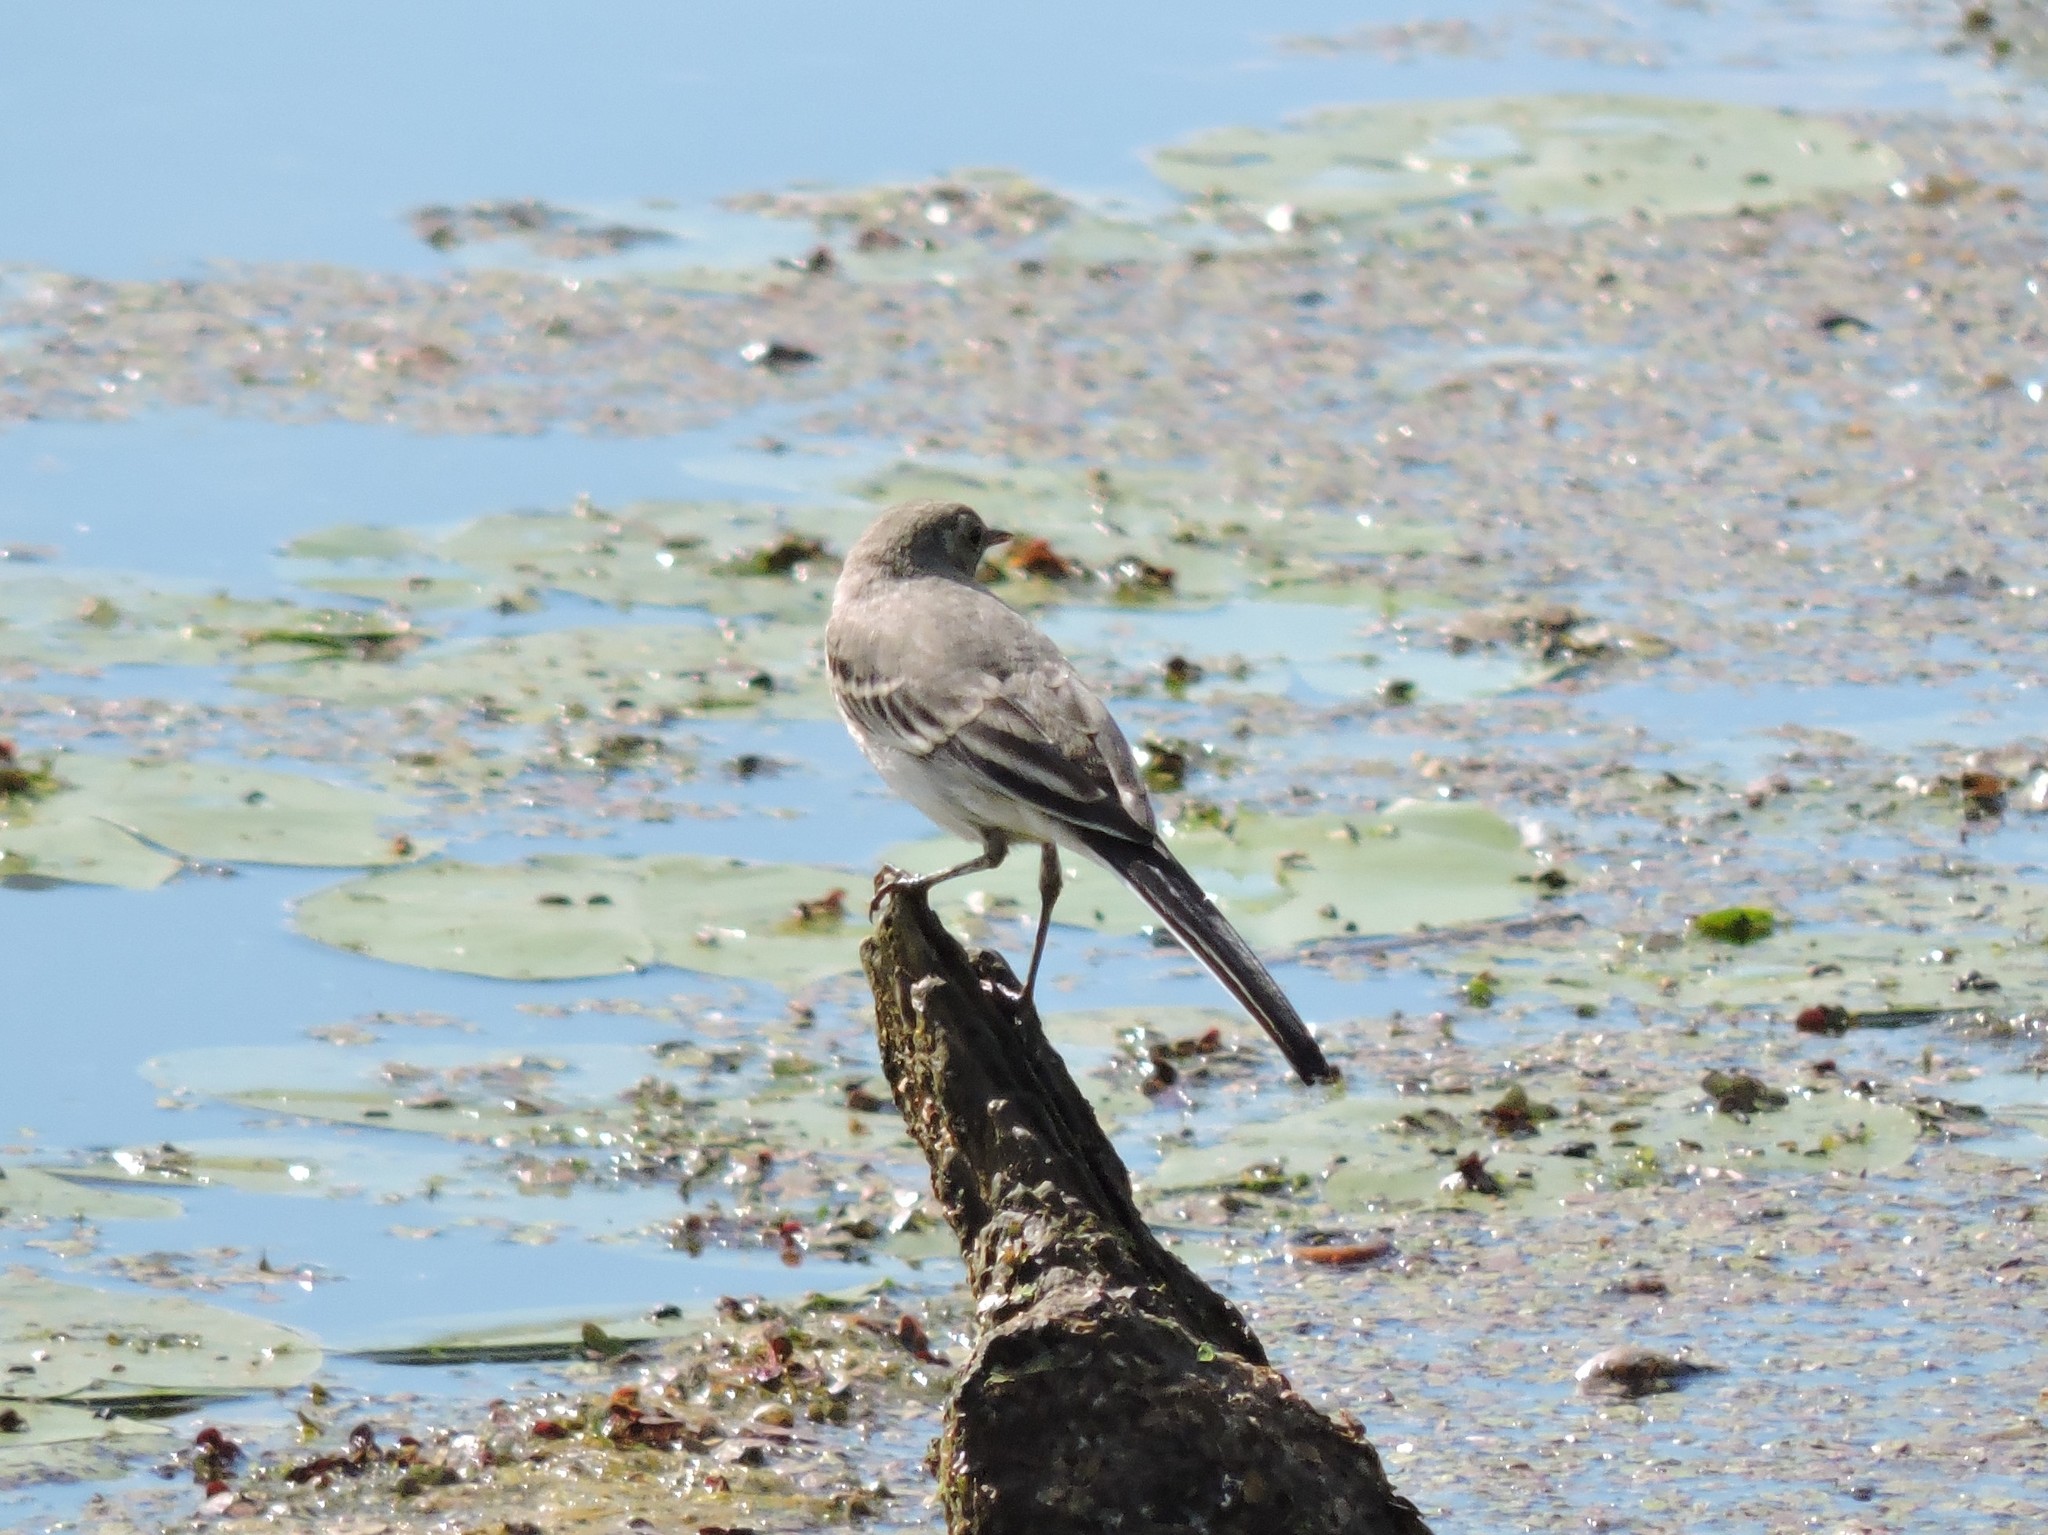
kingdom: Animalia
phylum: Chordata
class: Aves
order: Passeriformes
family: Motacillidae
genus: Motacilla
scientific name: Motacilla alba
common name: White wagtail
